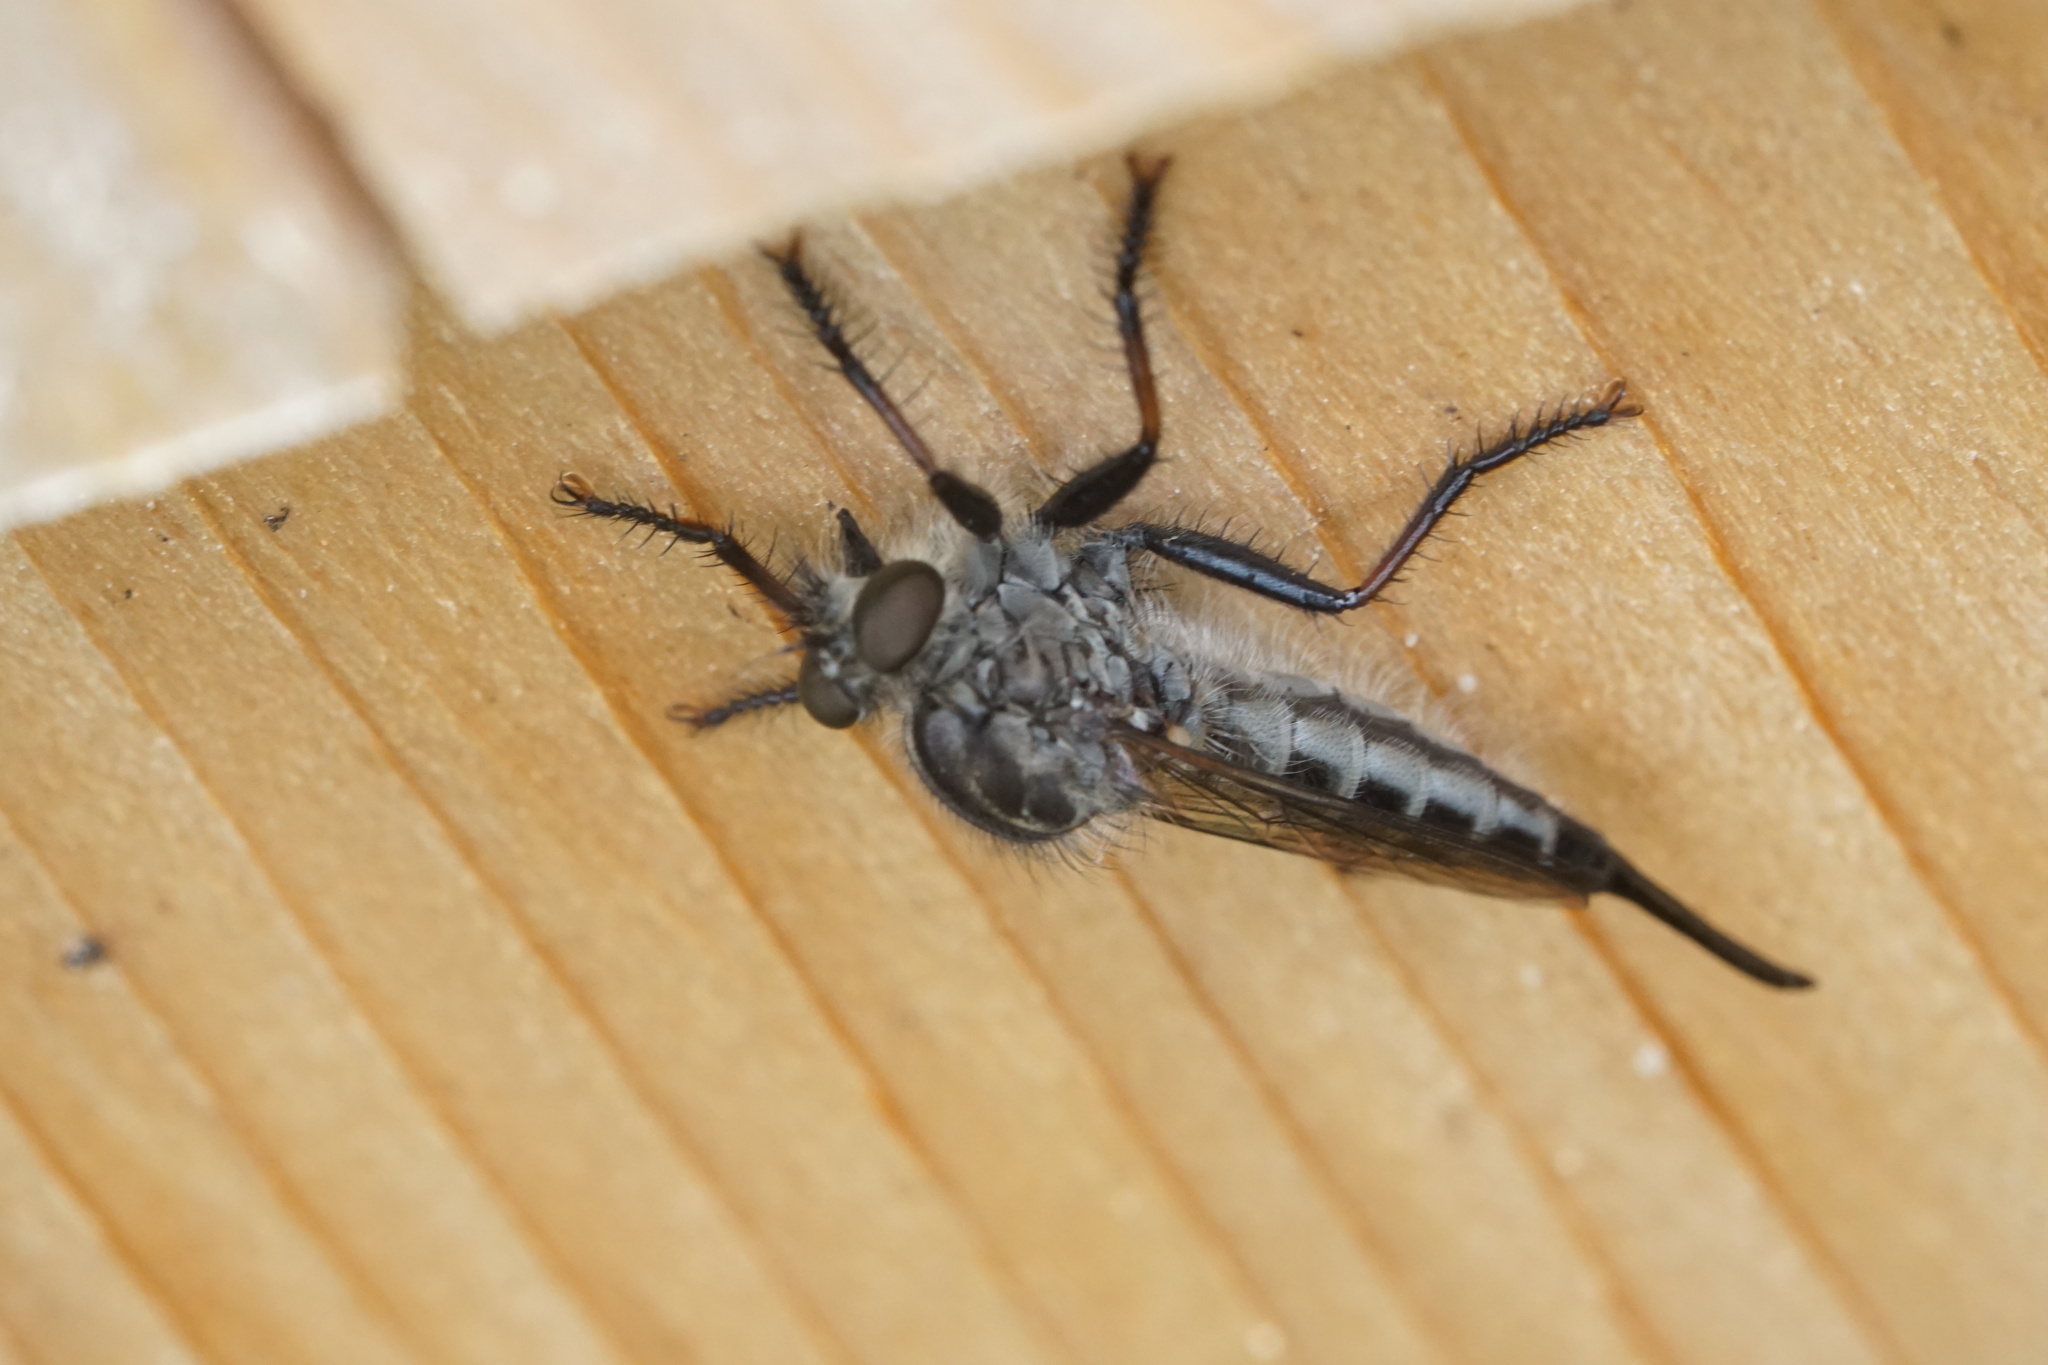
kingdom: Animalia
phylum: Arthropoda
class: Insecta
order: Diptera
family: Asilidae
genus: Efferia
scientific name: Efferia aestuans
